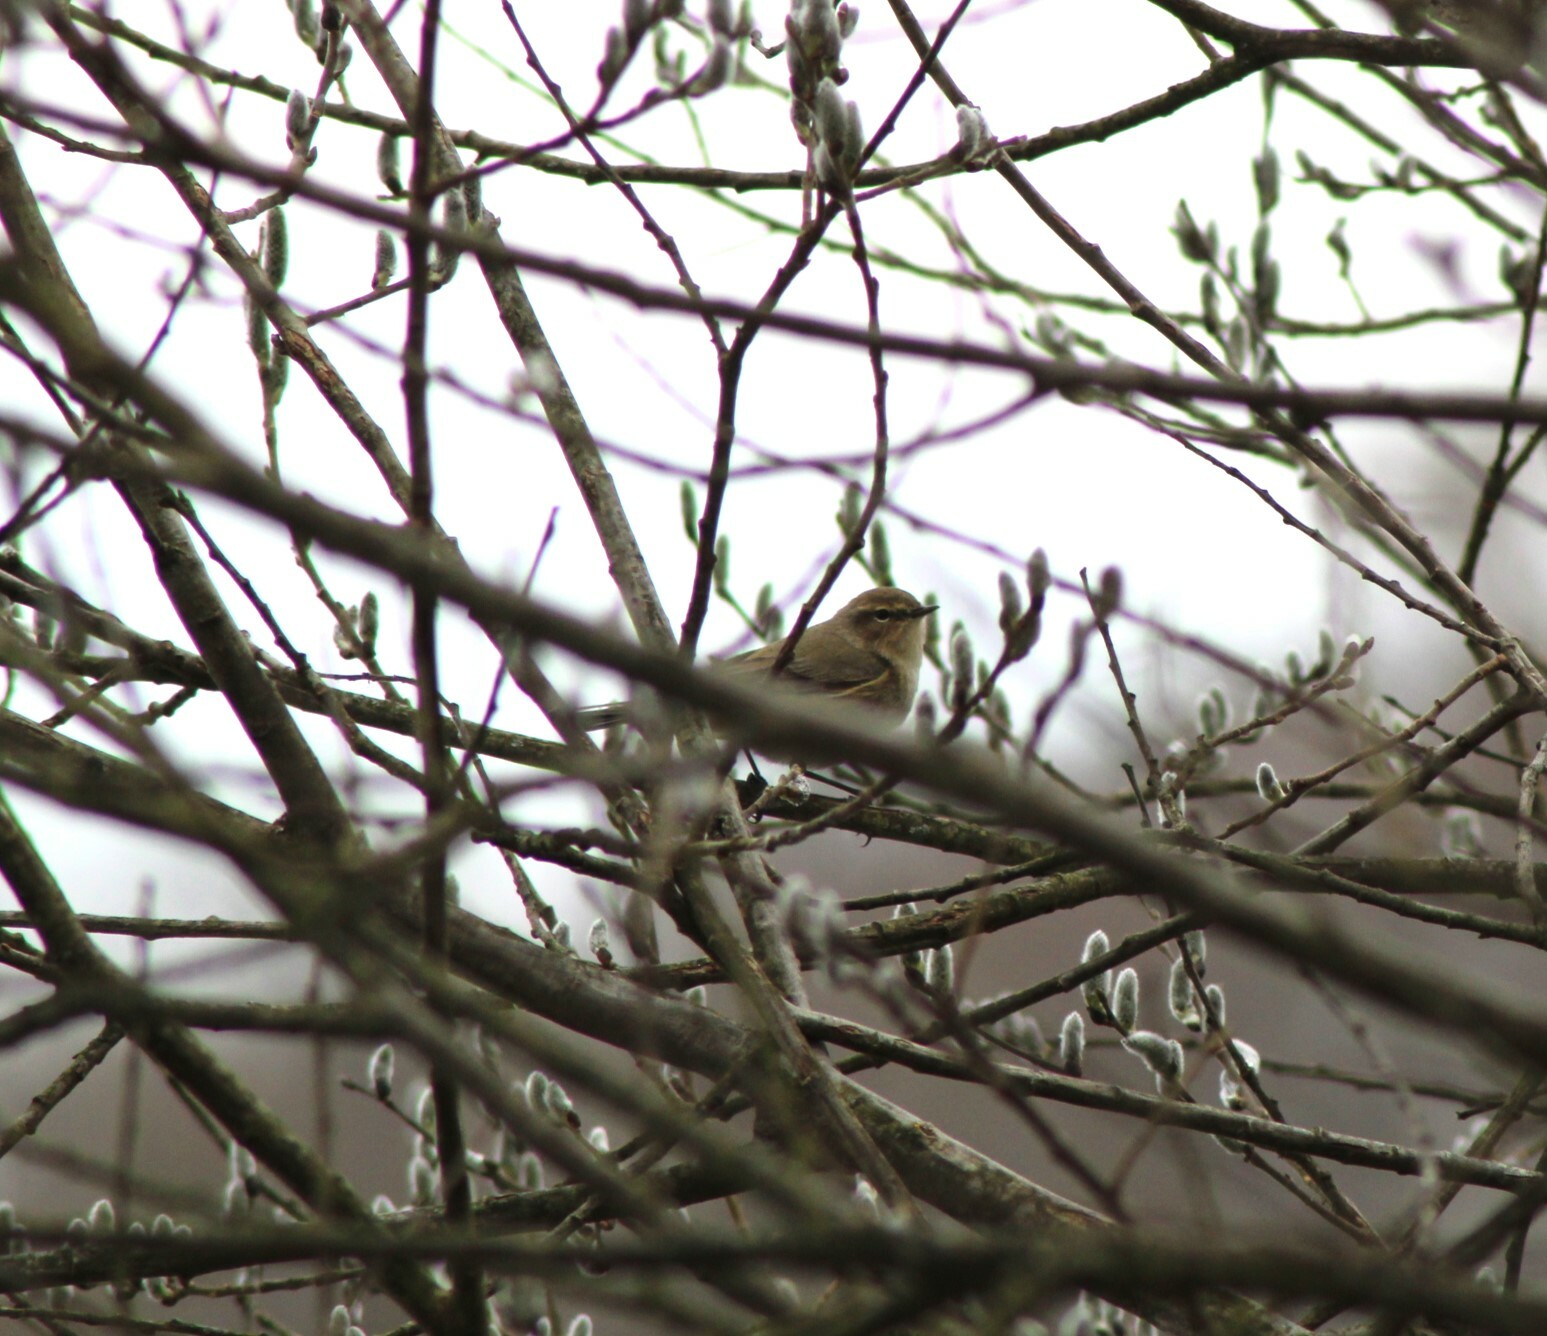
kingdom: Animalia
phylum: Chordata
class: Aves
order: Passeriformes
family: Phylloscopidae
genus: Phylloscopus
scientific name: Phylloscopus collybita
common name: Common chiffchaff
